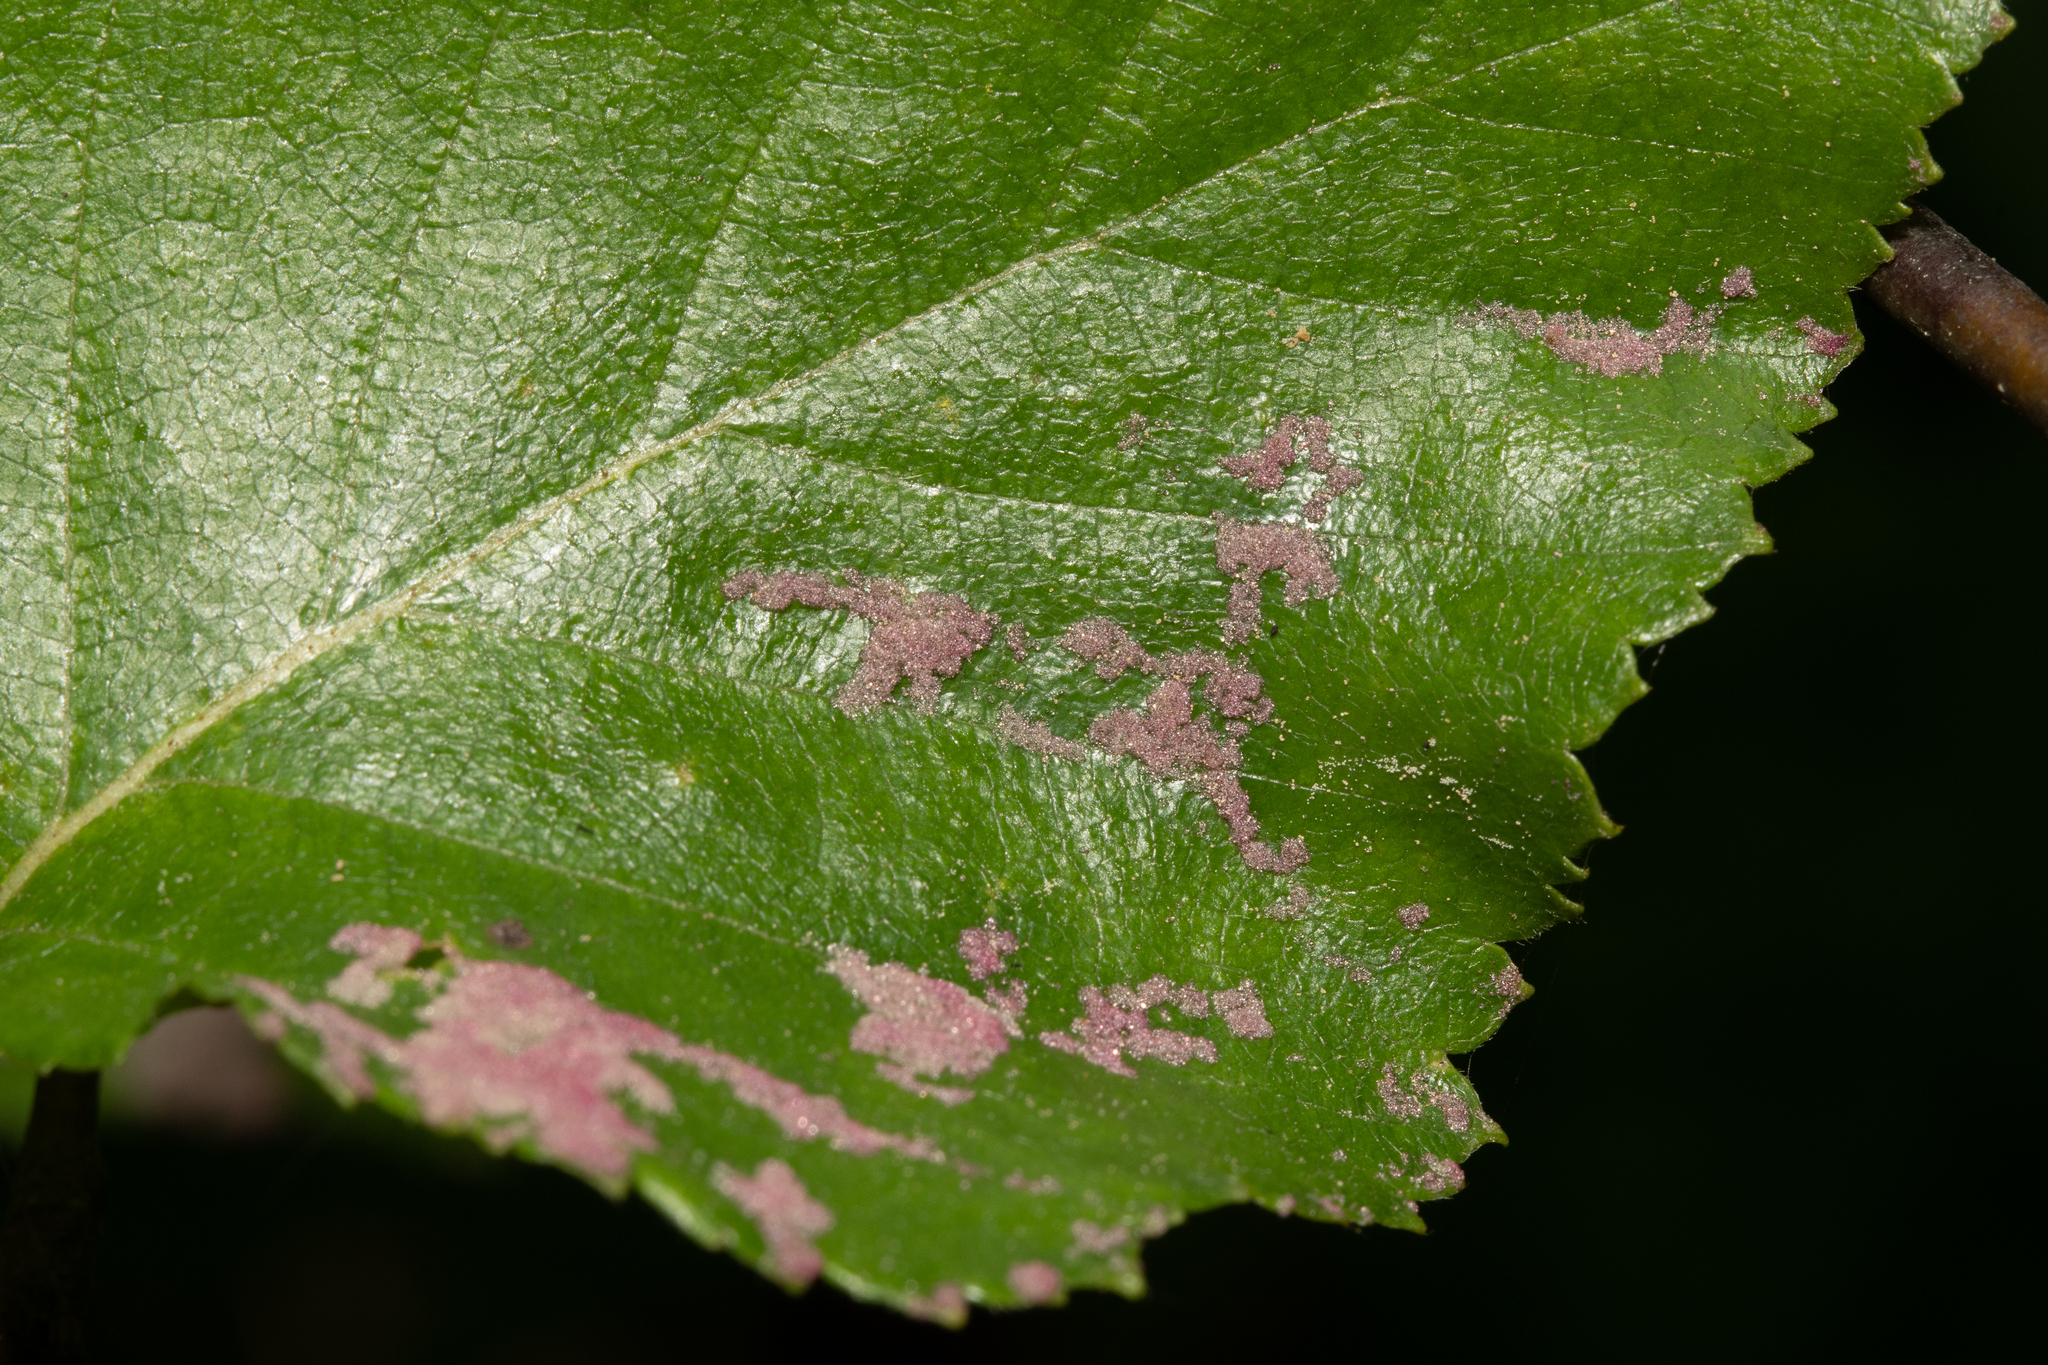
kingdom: Animalia
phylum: Arthropoda
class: Arachnida
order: Trombidiformes
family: Eriophyidae
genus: Acalitus
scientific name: Acalitus longisetosus
